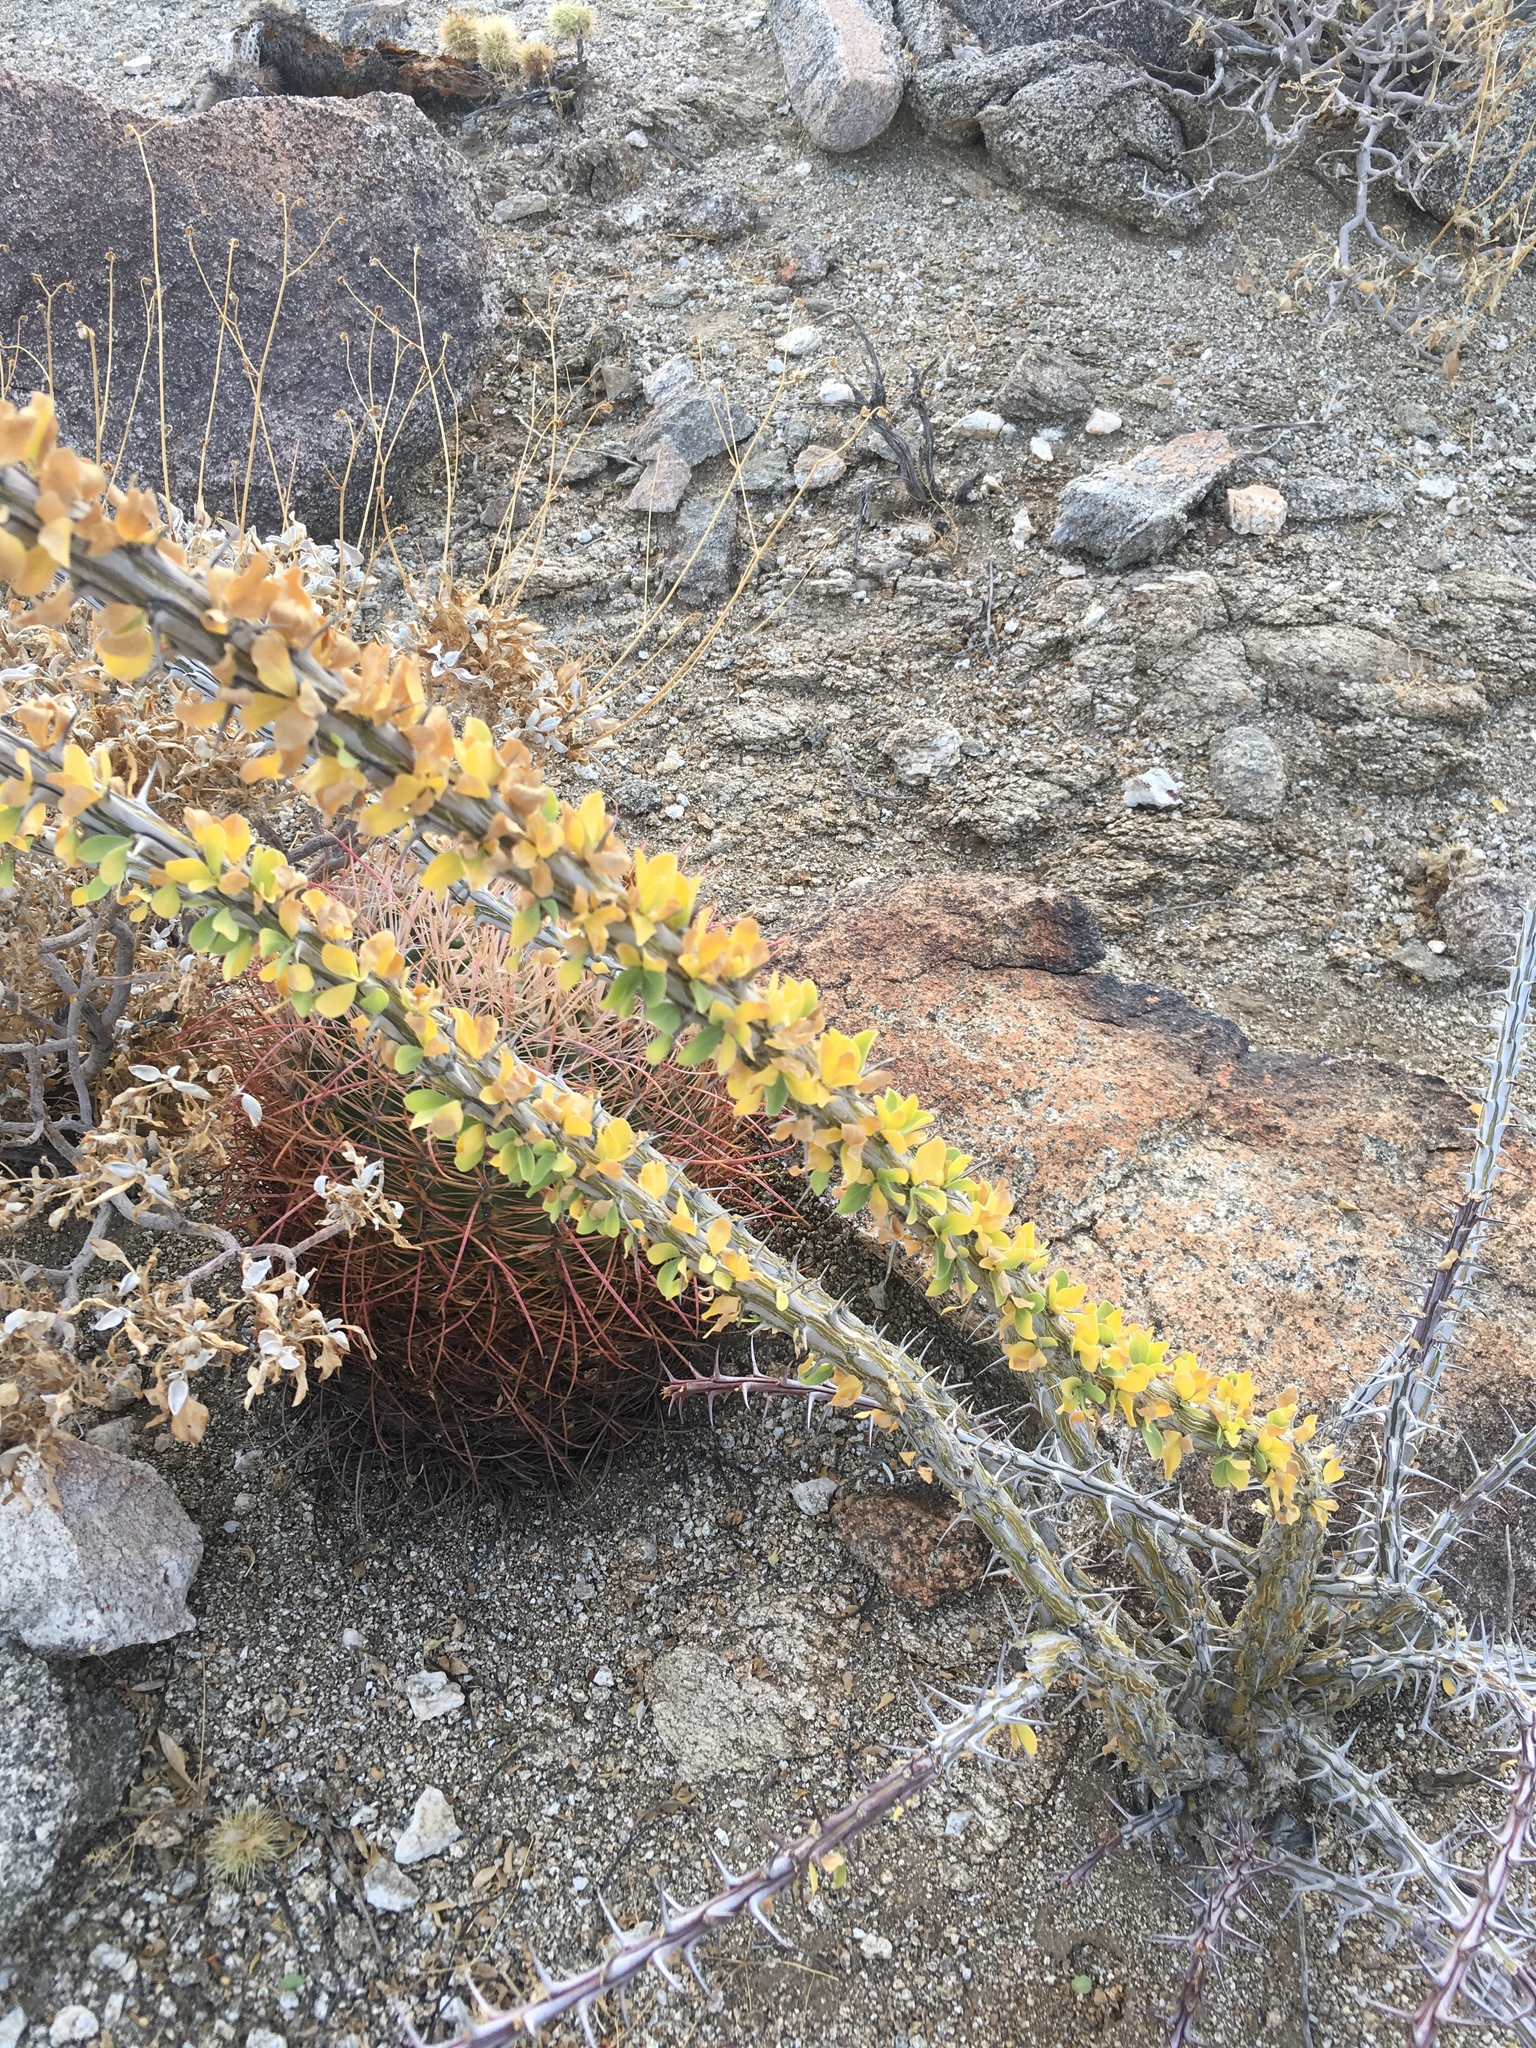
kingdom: Plantae
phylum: Tracheophyta
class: Magnoliopsida
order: Ericales
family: Fouquieriaceae
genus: Fouquieria
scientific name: Fouquieria splendens
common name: Vine-cactus
